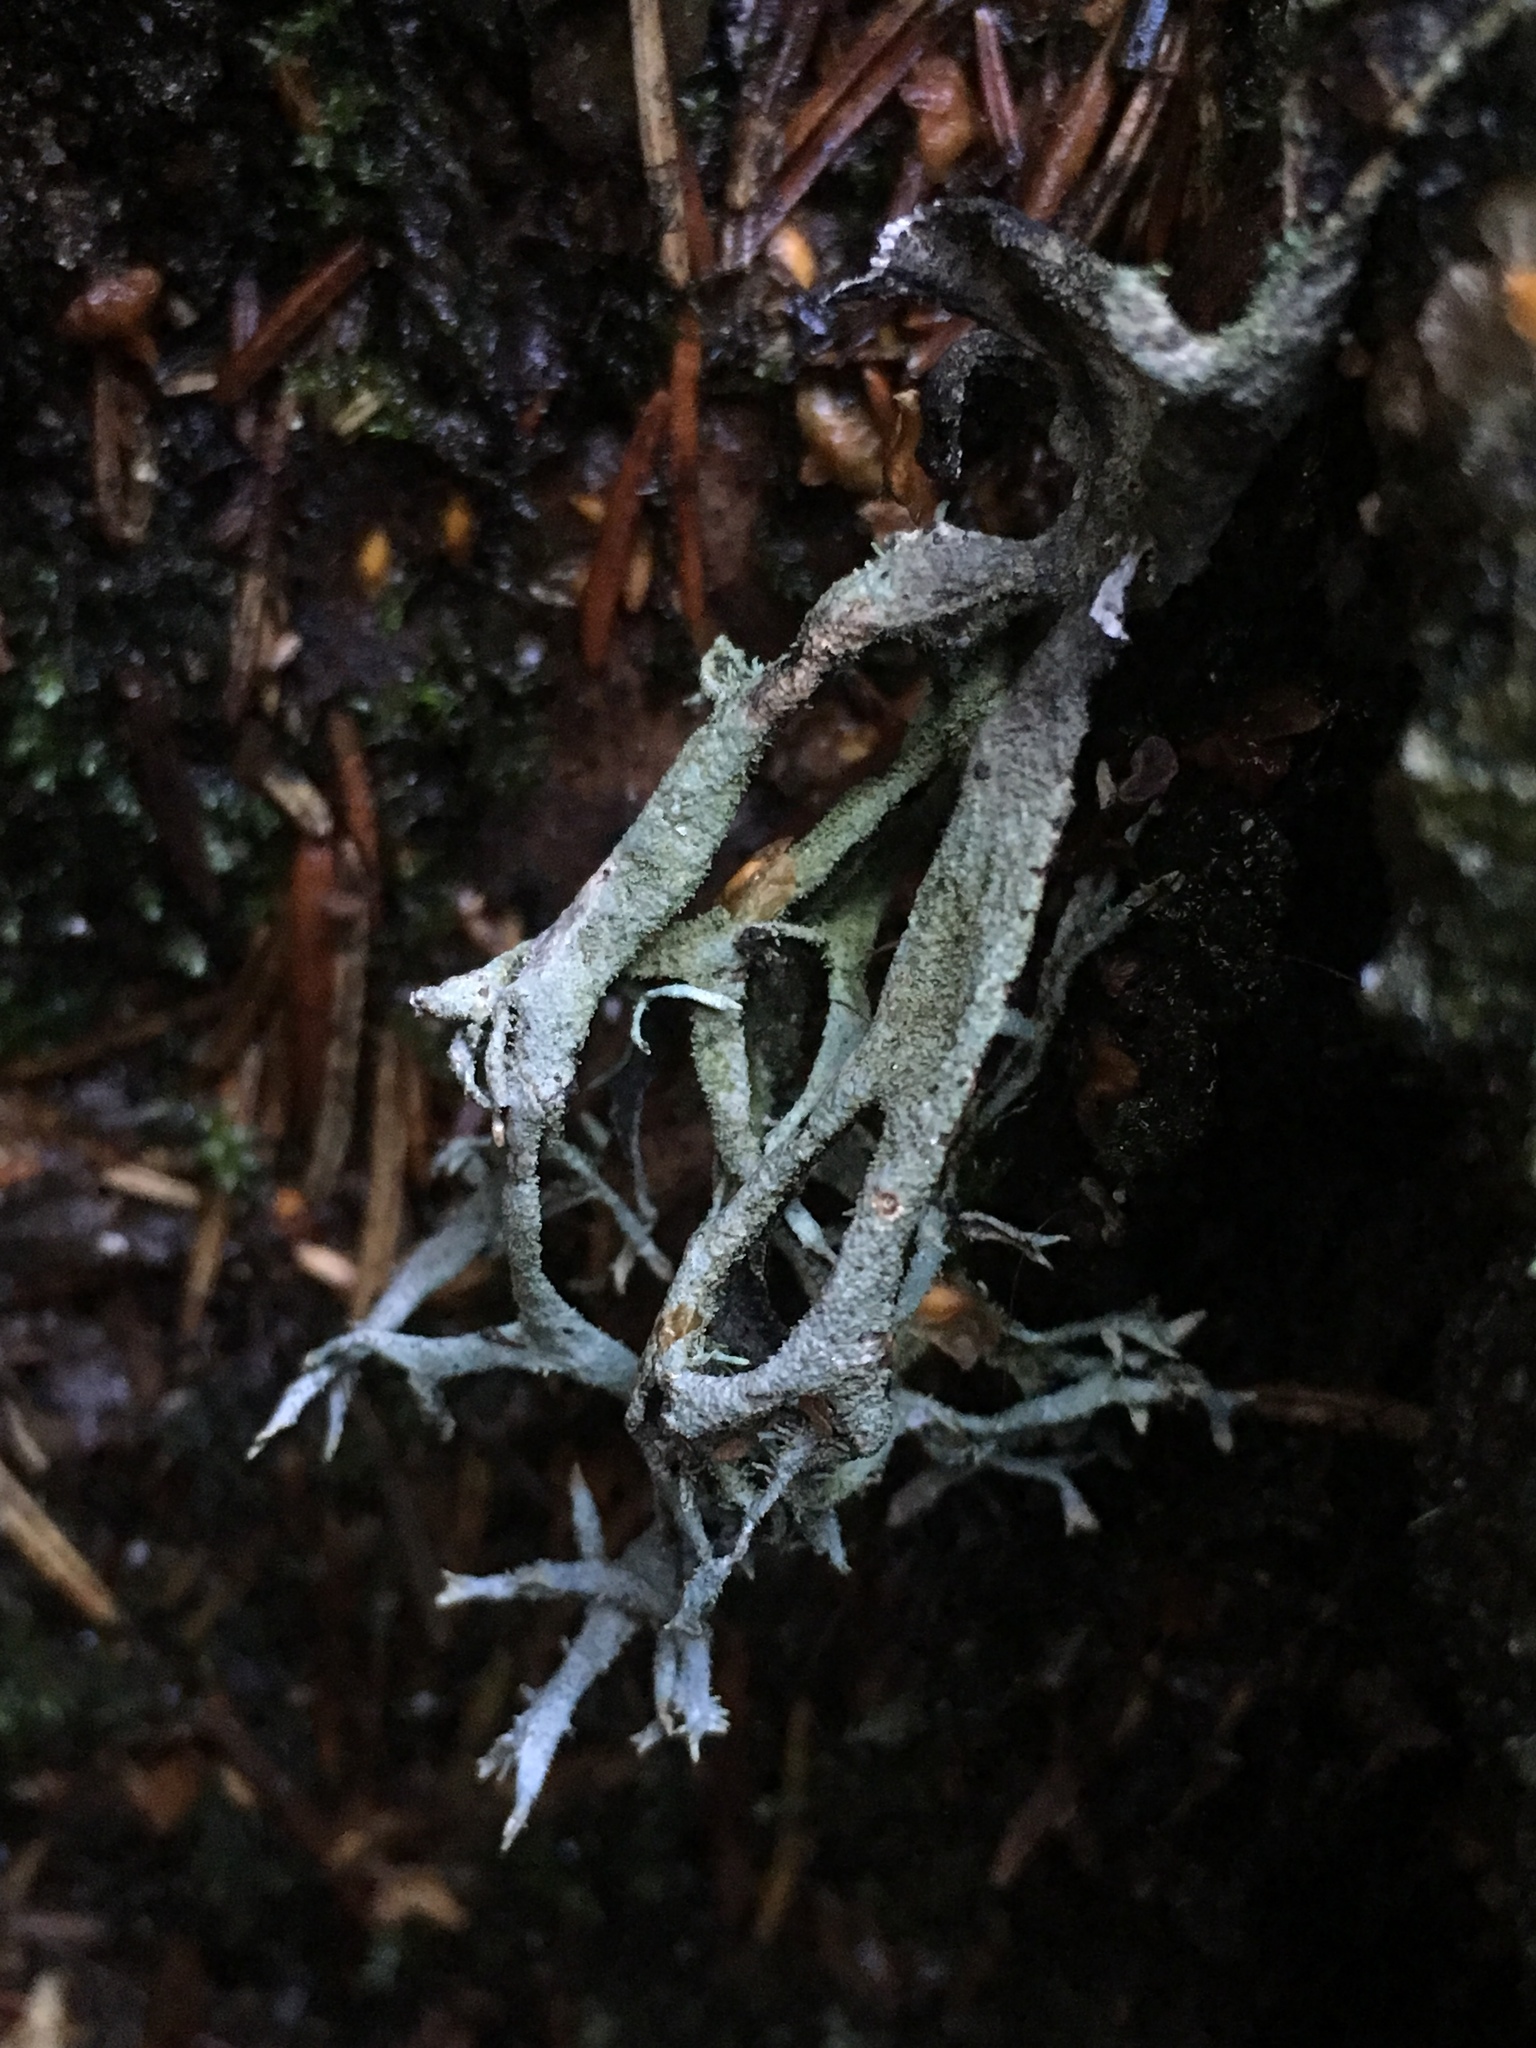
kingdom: Fungi
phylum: Ascomycota
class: Sordariomycetes
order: Xylariales
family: Xylariaceae
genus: Xylaria
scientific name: Xylaria hypoxylon
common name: Candle-snuff fungus
